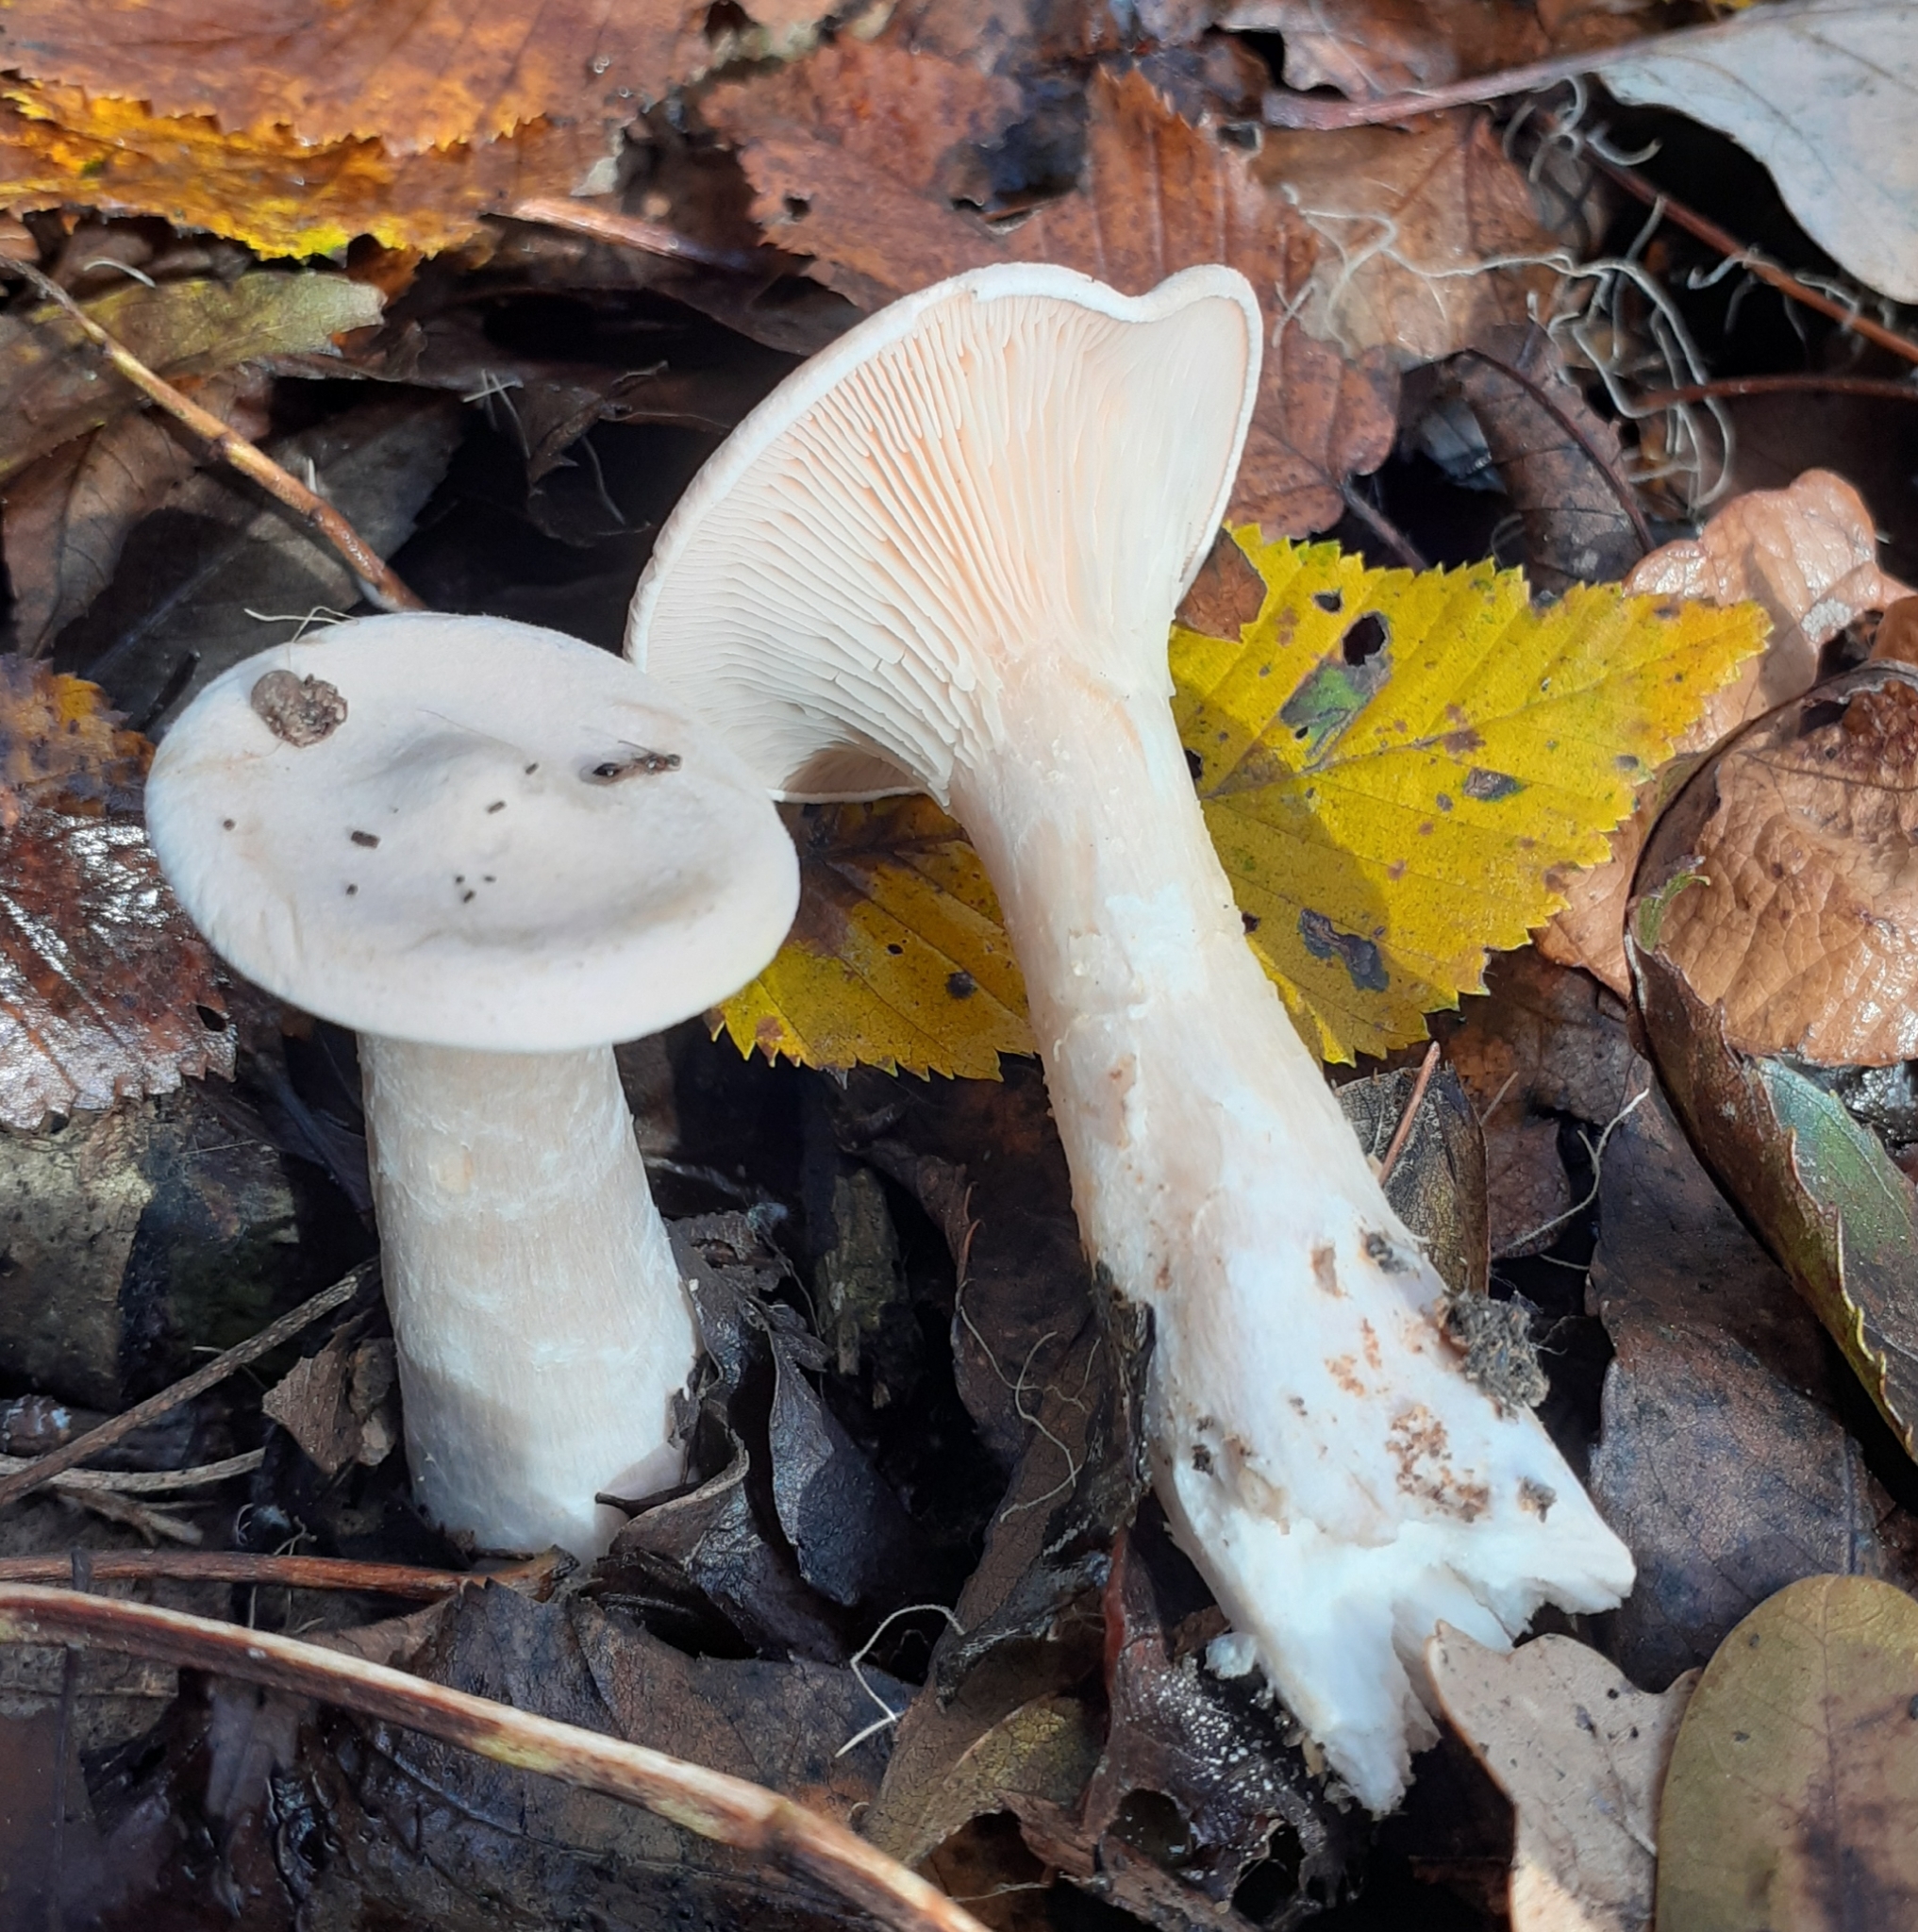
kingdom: Fungi
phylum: Basidiomycota
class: Agaricomycetes
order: Agaricales
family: Tricholomataceae
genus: Infundibulicybe
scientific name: Infundibulicybe geotropa
